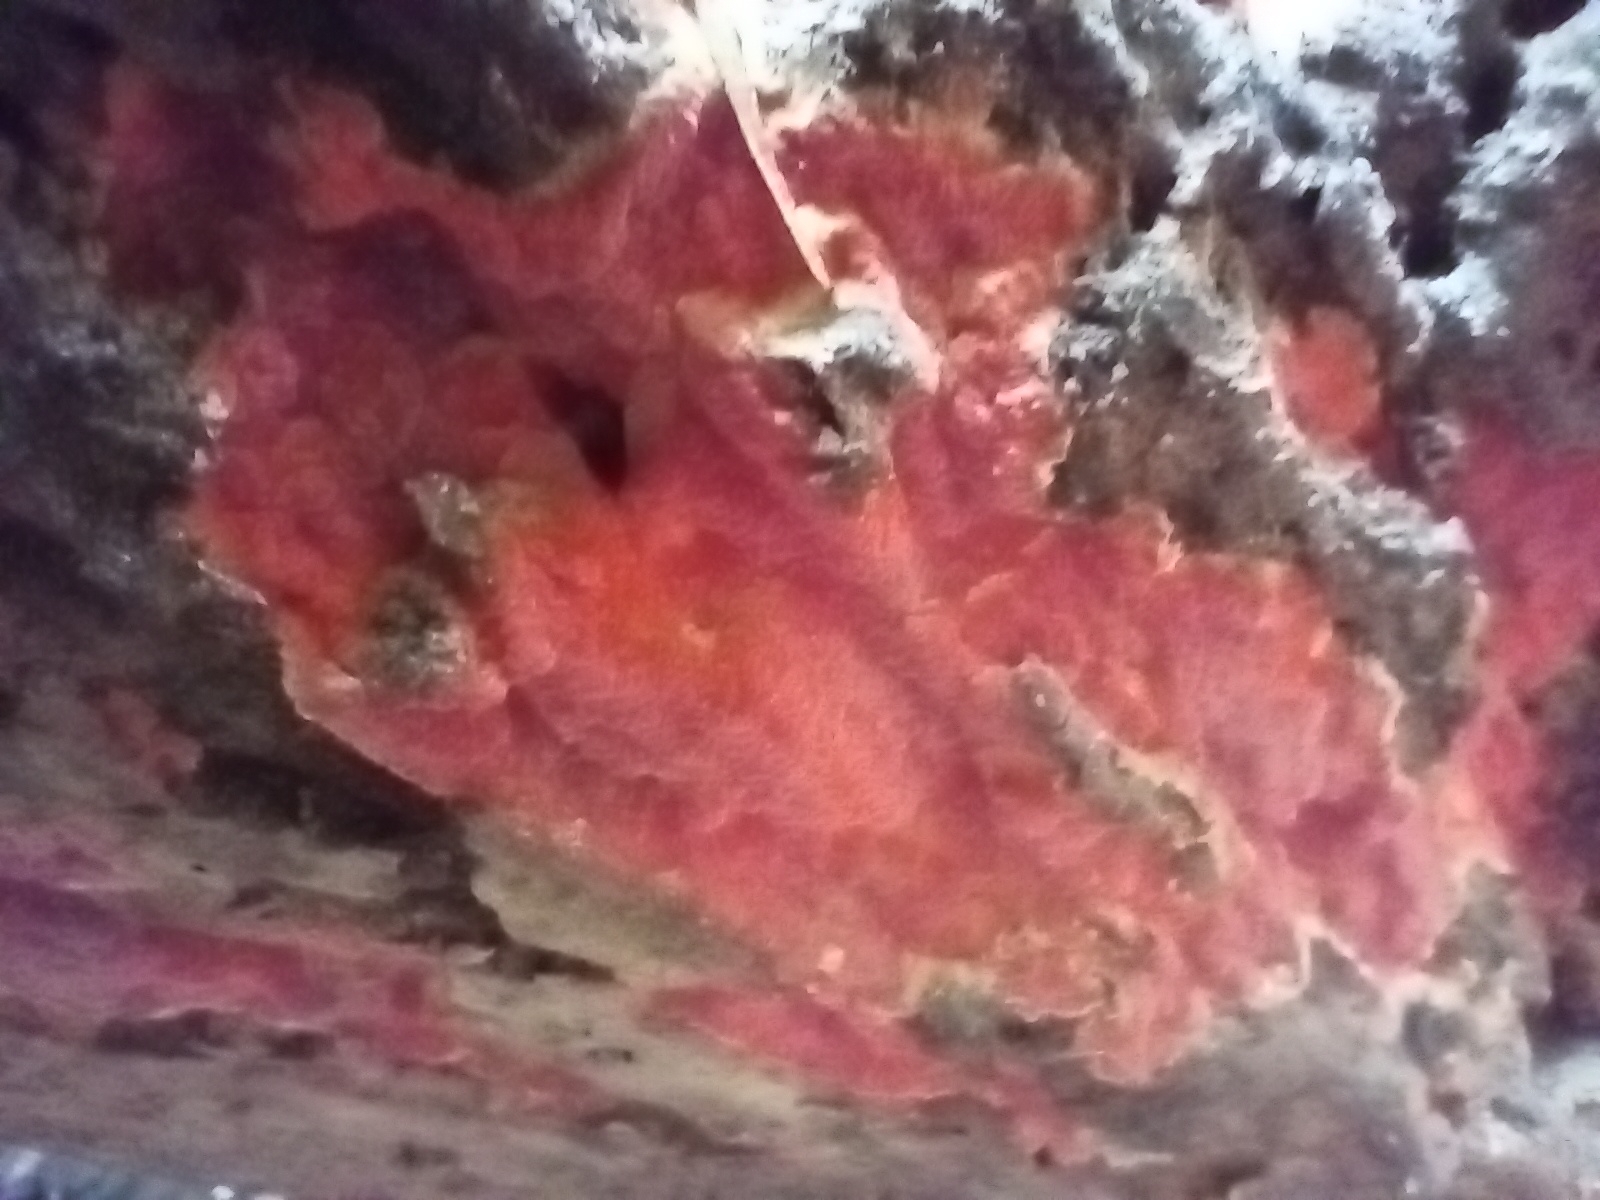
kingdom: Fungi
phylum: Basidiomycota
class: Agaricomycetes
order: Polyporales
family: Meruliaceae
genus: Phlebia
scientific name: Phlebia coccineofulva
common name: Scarlet waxcrust
